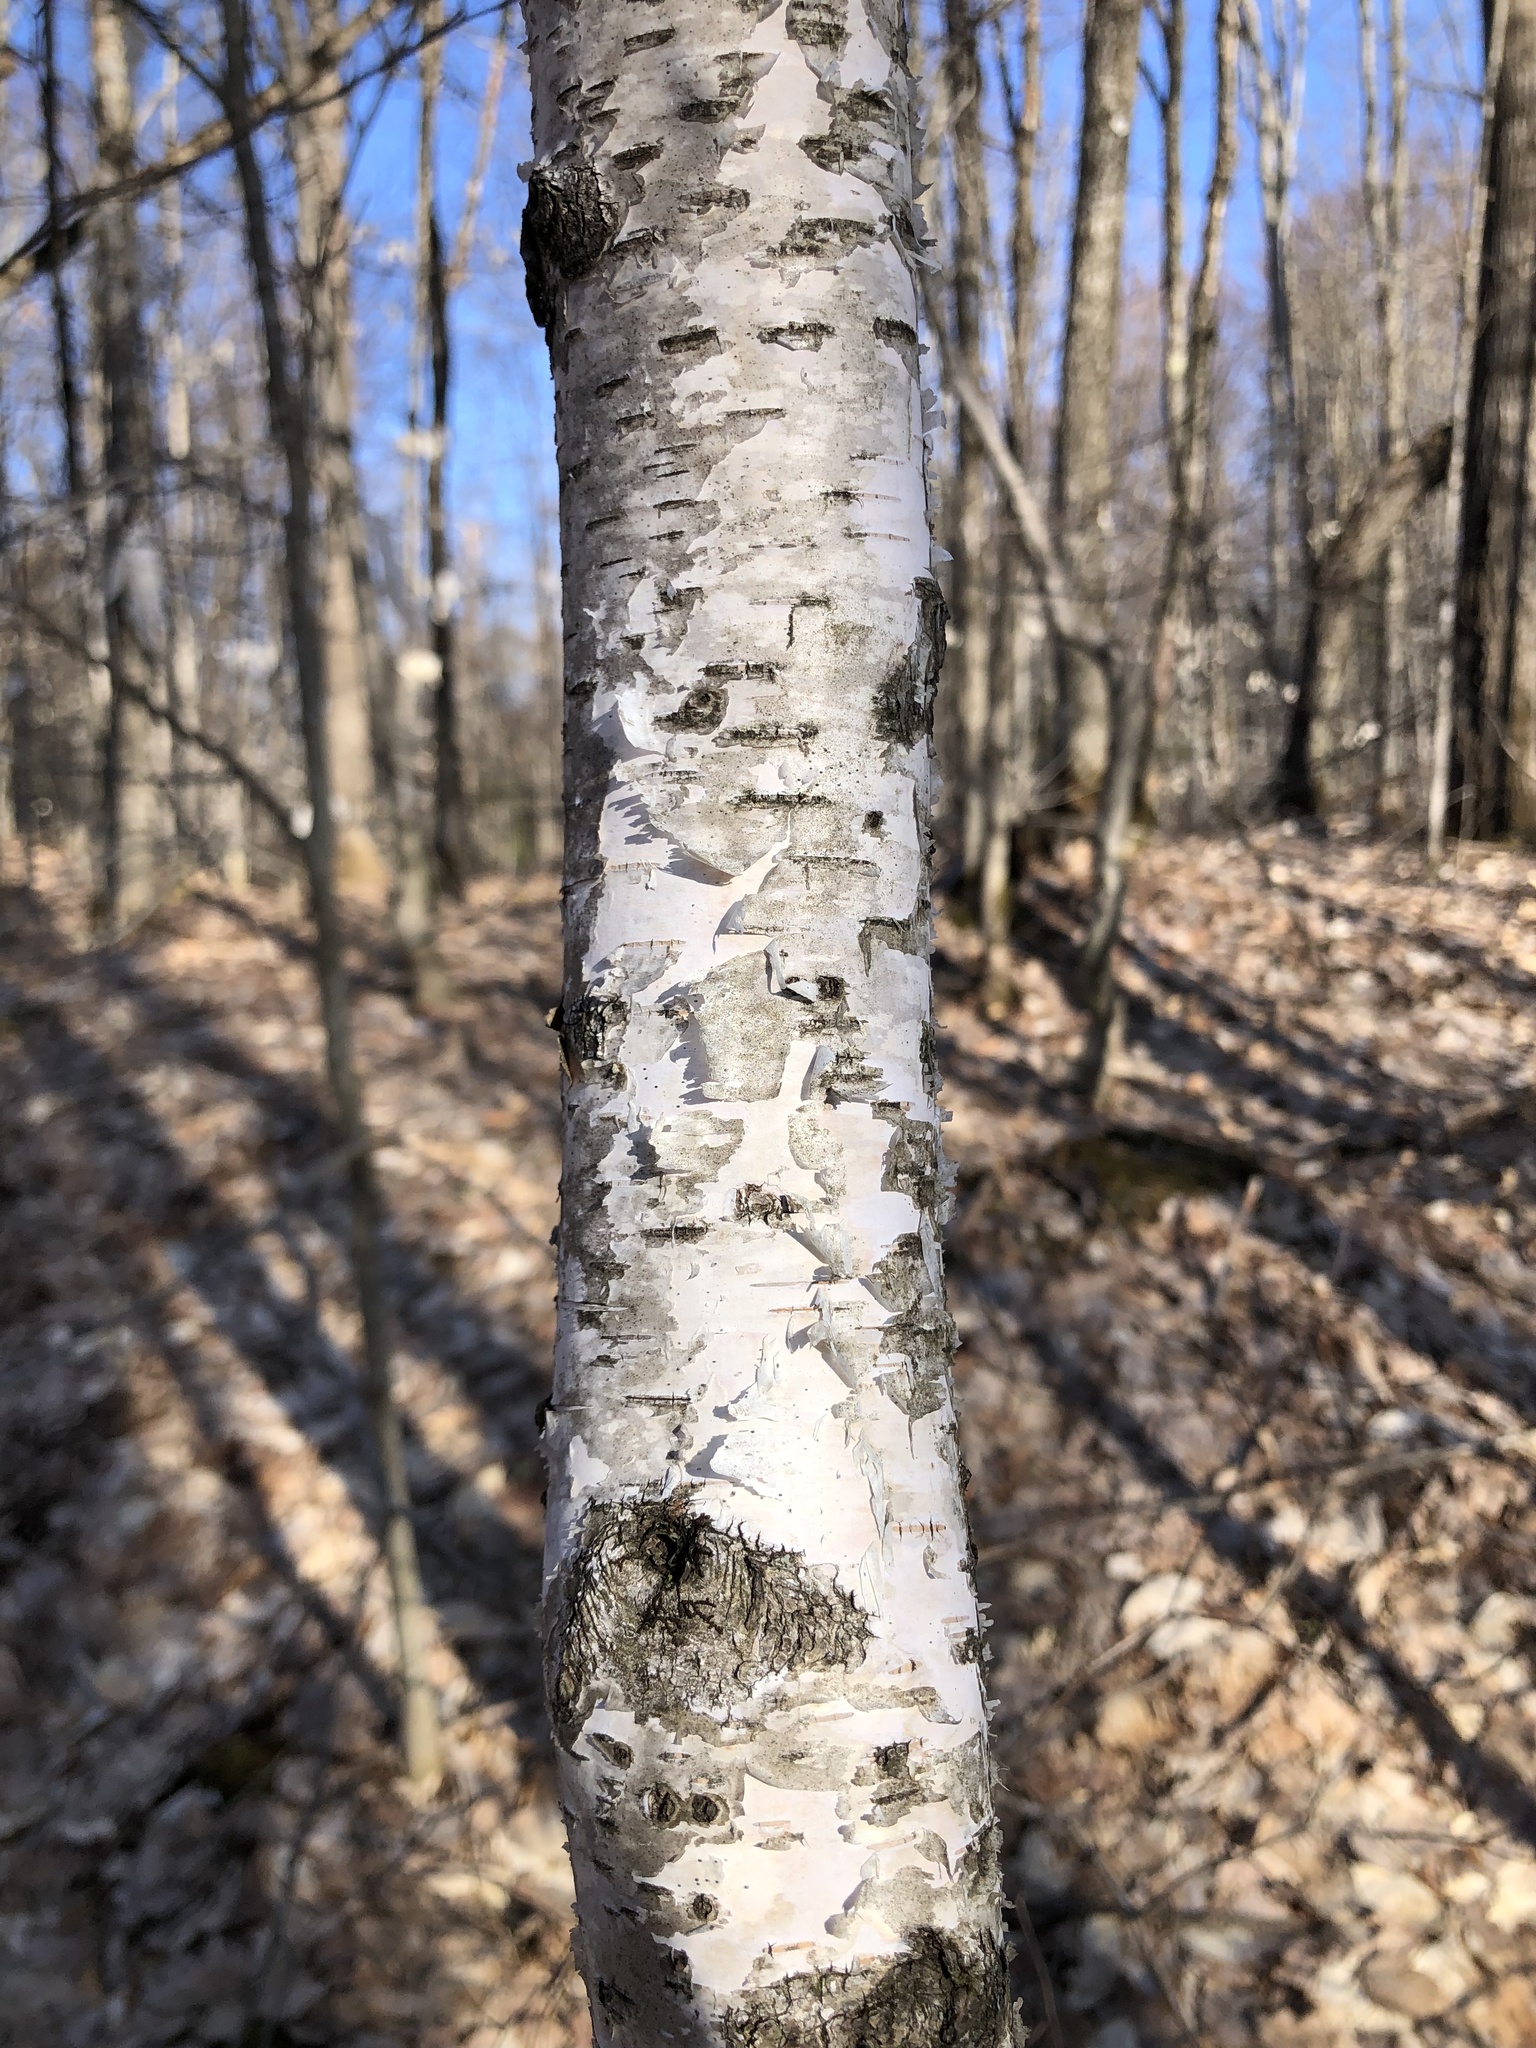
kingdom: Plantae
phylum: Tracheophyta
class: Magnoliopsida
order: Fagales
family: Betulaceae
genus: Betula
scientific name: Betula papyrifera
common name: Paper birch
